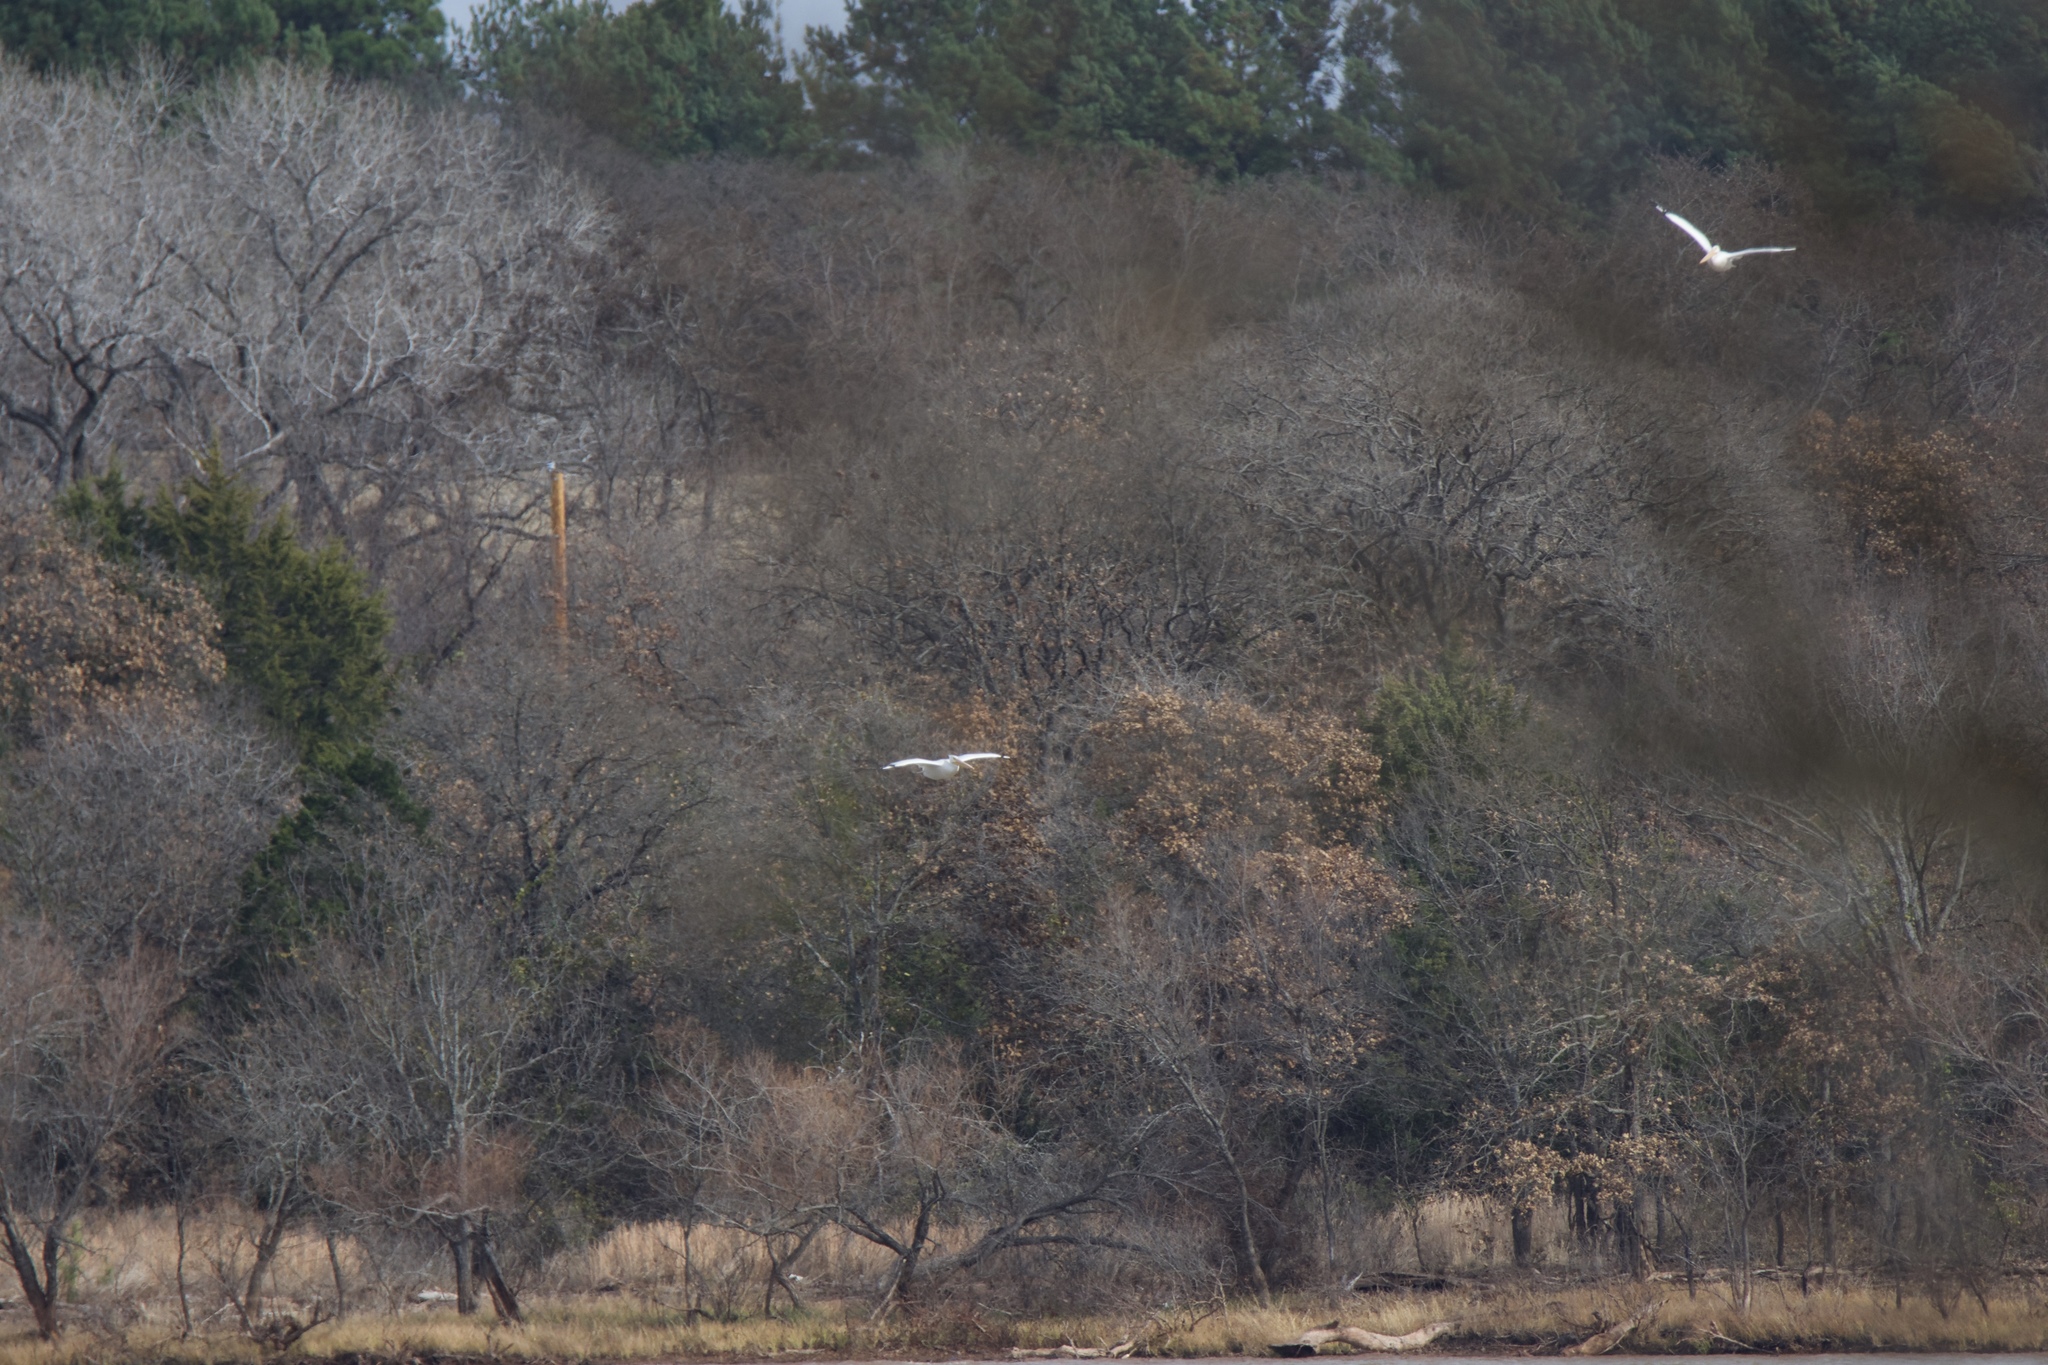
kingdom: Animalia
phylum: Chordata
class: Aves
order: Pelecaniformes
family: Pelecanidae
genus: Pelecanus
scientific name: Pelecanus erythrorhynchos
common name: American white pelican
